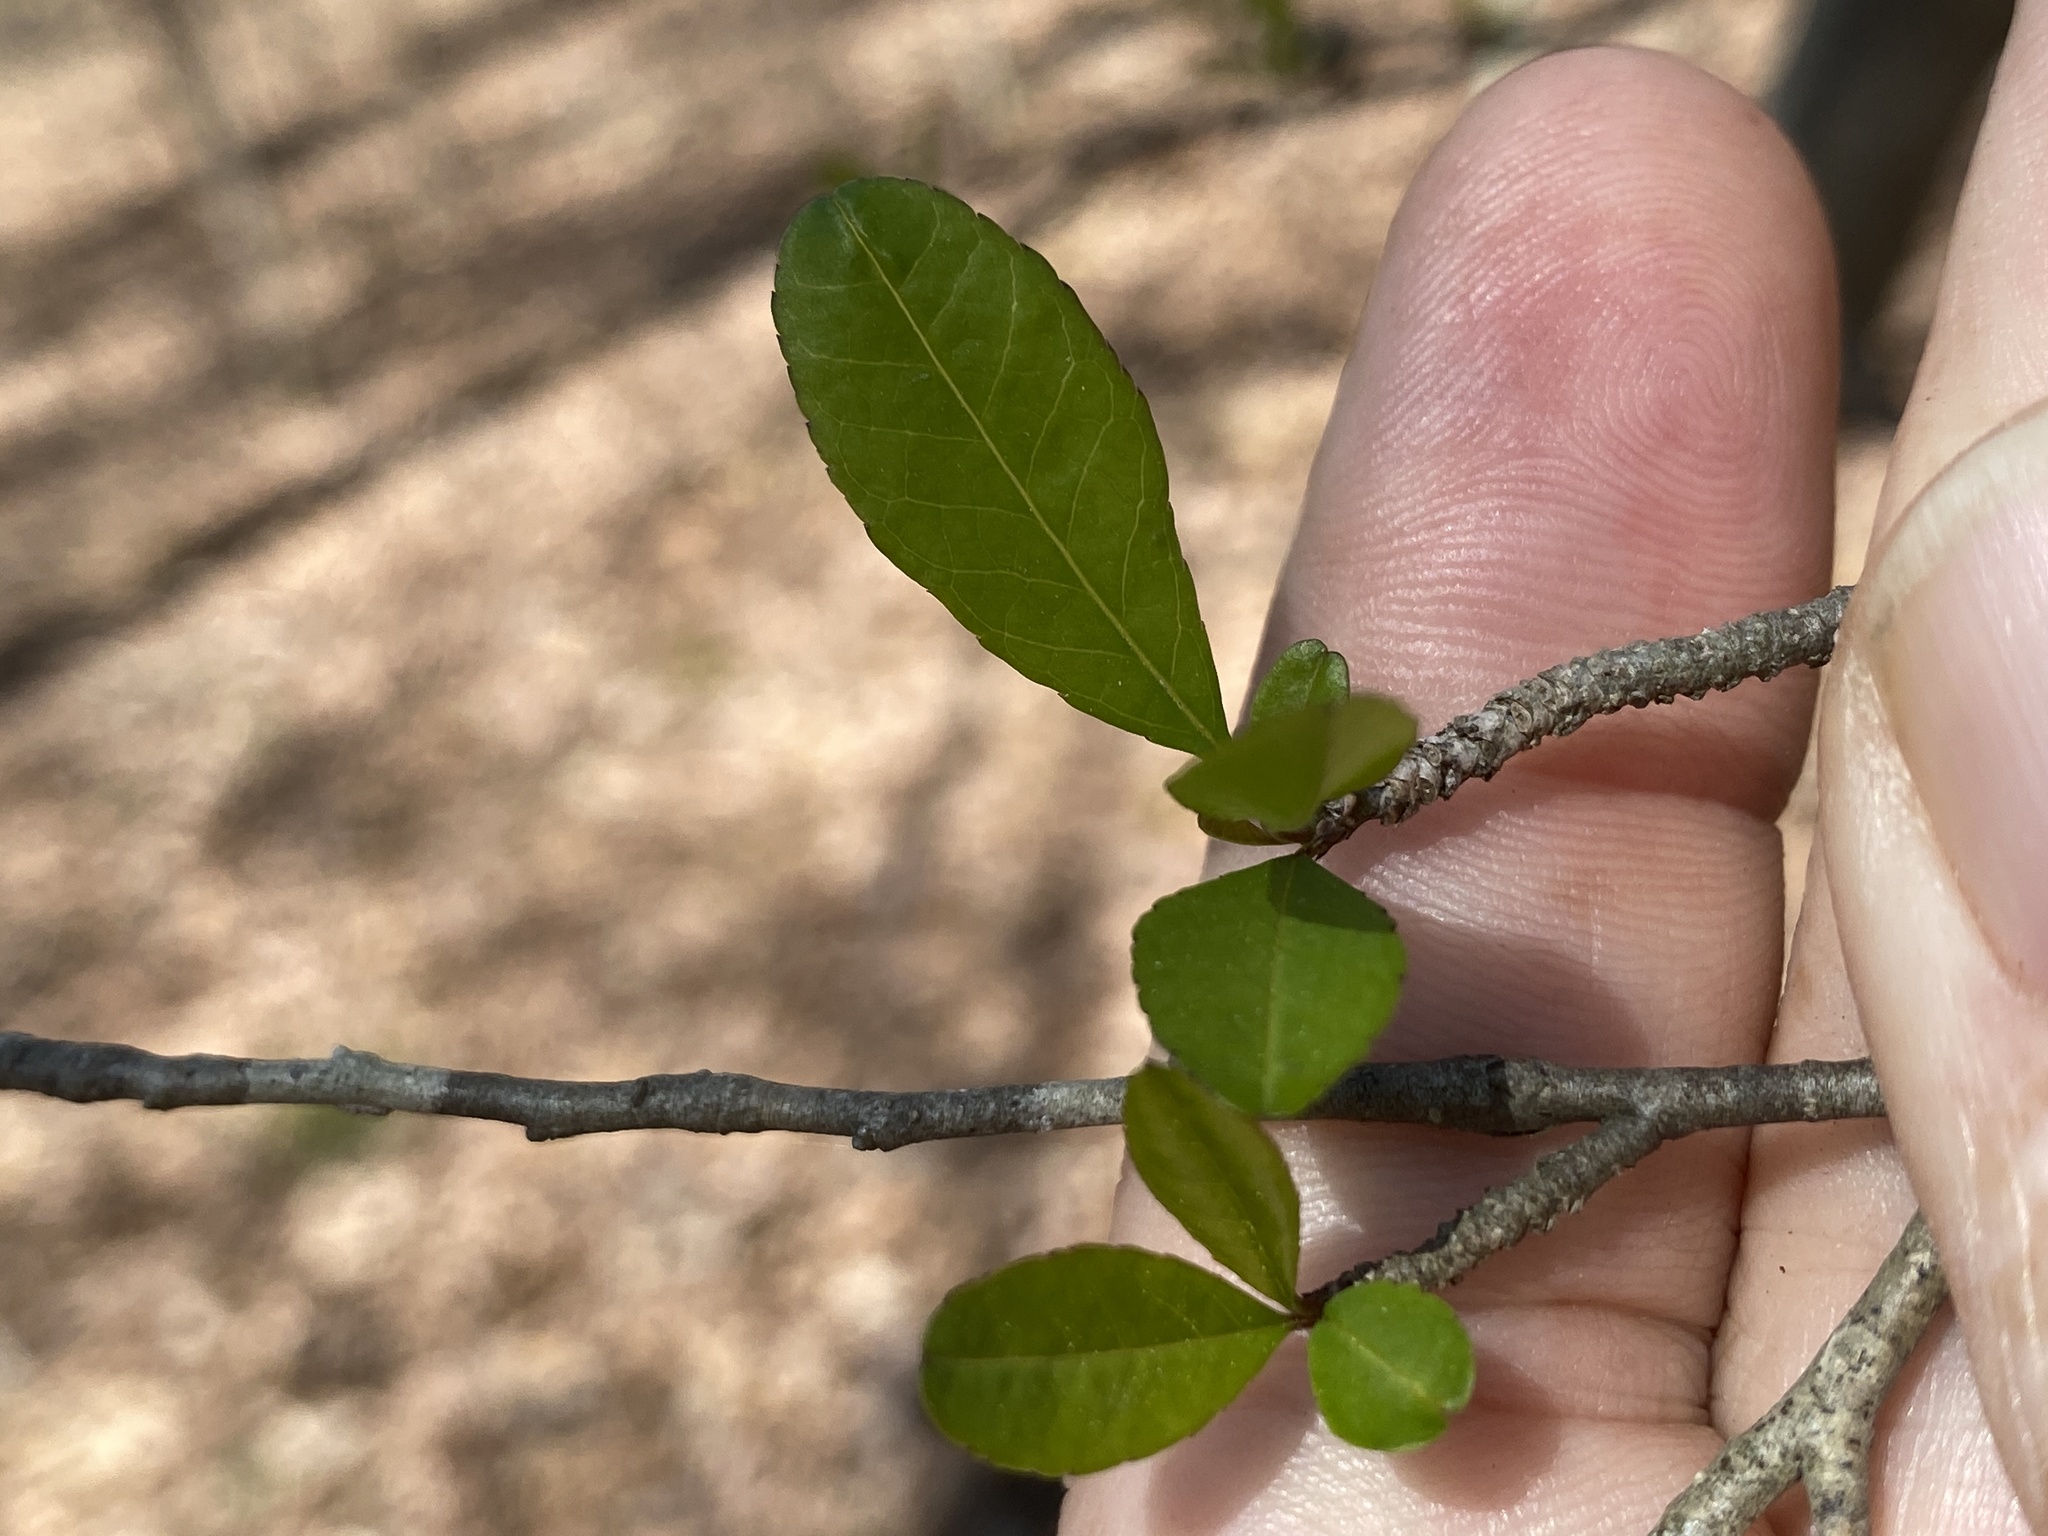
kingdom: Plantae
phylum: Tracheophyta
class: Magnoliopsida
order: Aquifoliales
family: Aquifoliaceae
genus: Ilex
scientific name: Ilex decidua
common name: Possum-haw
